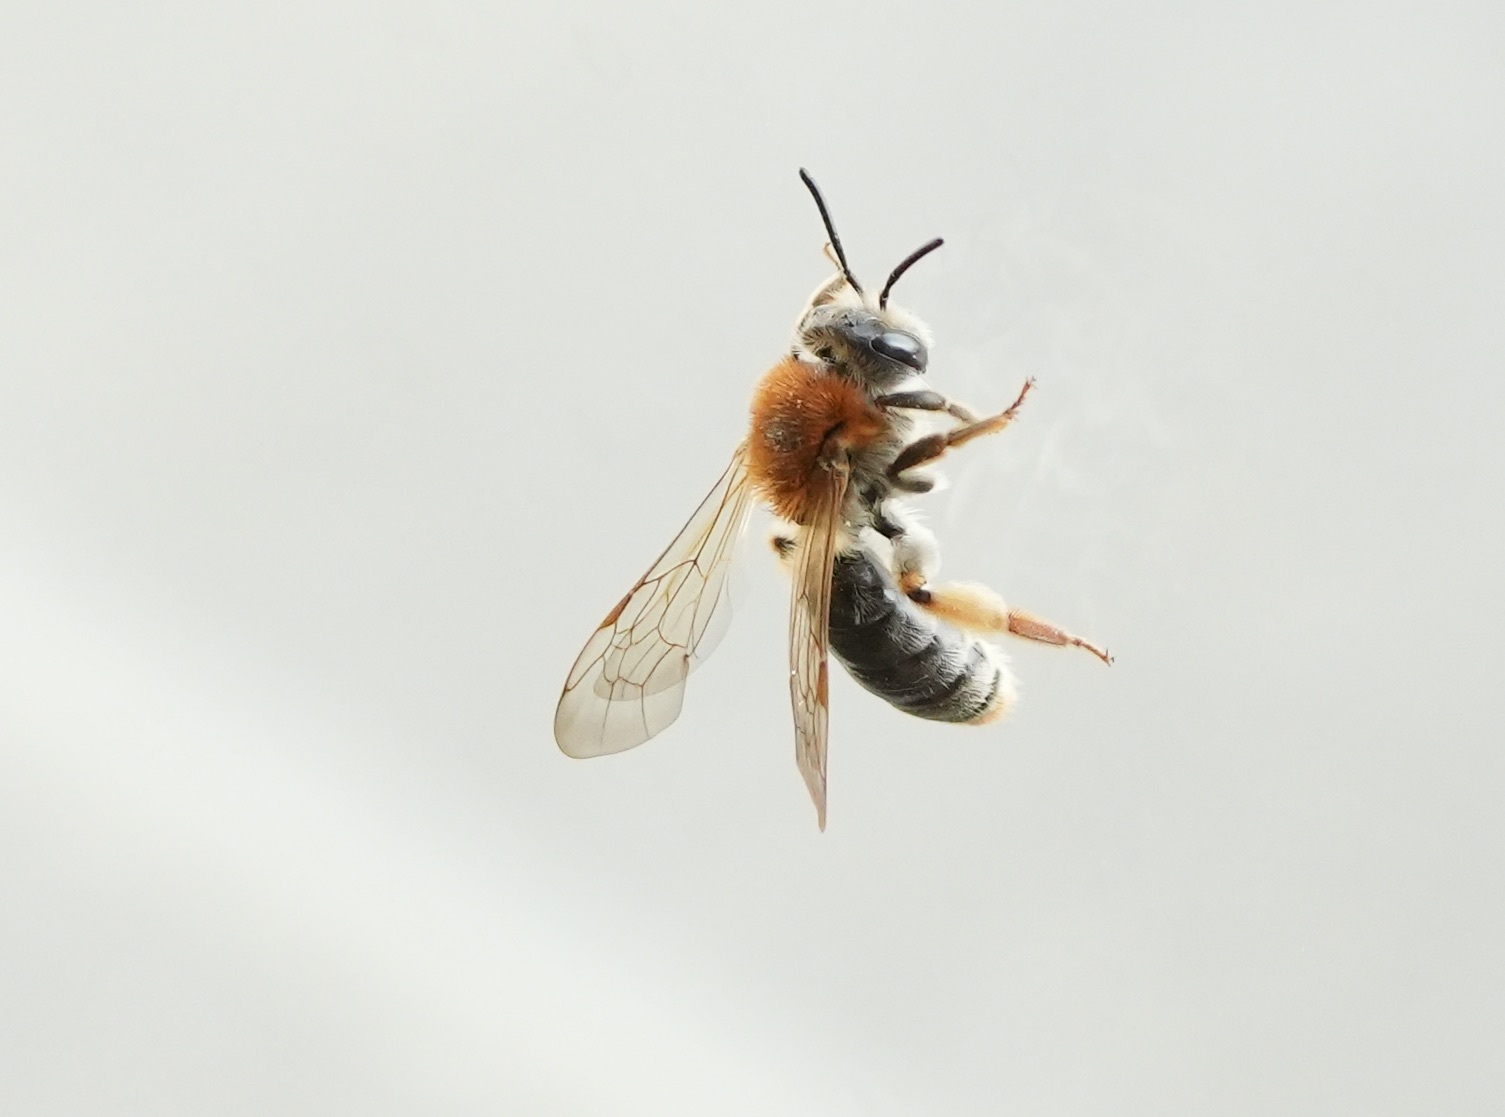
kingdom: Animalia
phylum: Arthropoda
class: Insecta
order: Hymenoptera
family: Andrenidae
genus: Andrena
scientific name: Andrena haemorrhoa
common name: Early mining bee
